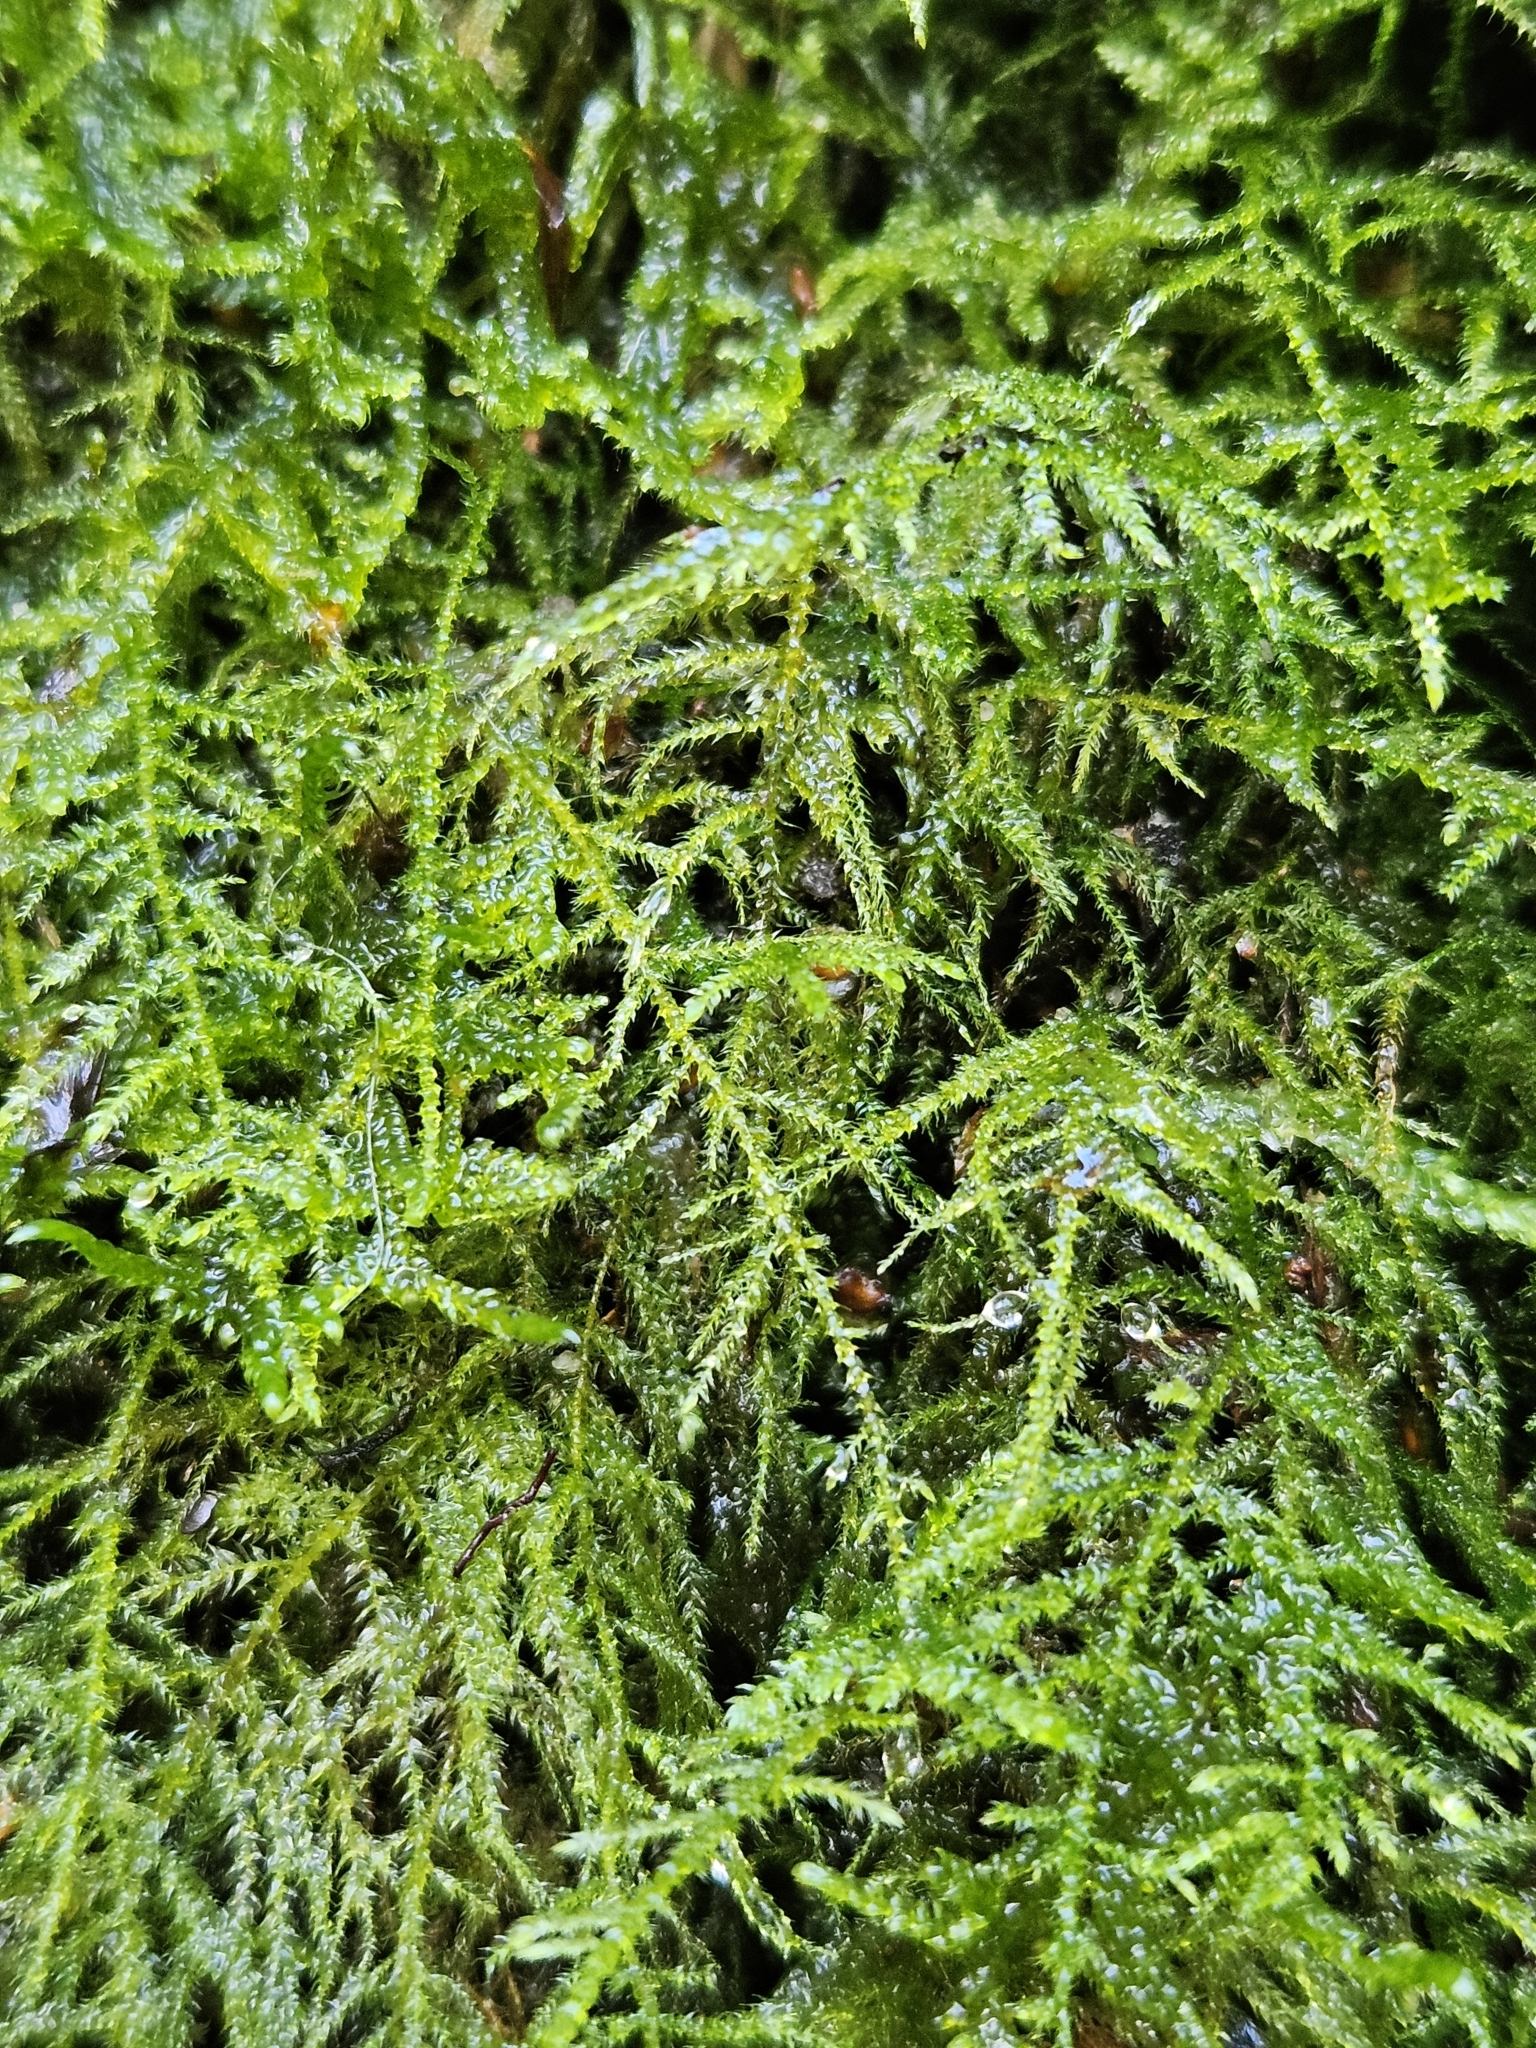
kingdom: Plantae
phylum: Bryophyta
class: Bryopsida
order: Hypnales
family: Brachytheciaceae
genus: Kindbergia
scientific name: Kindbergia praelonga
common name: Slender beaked moss
